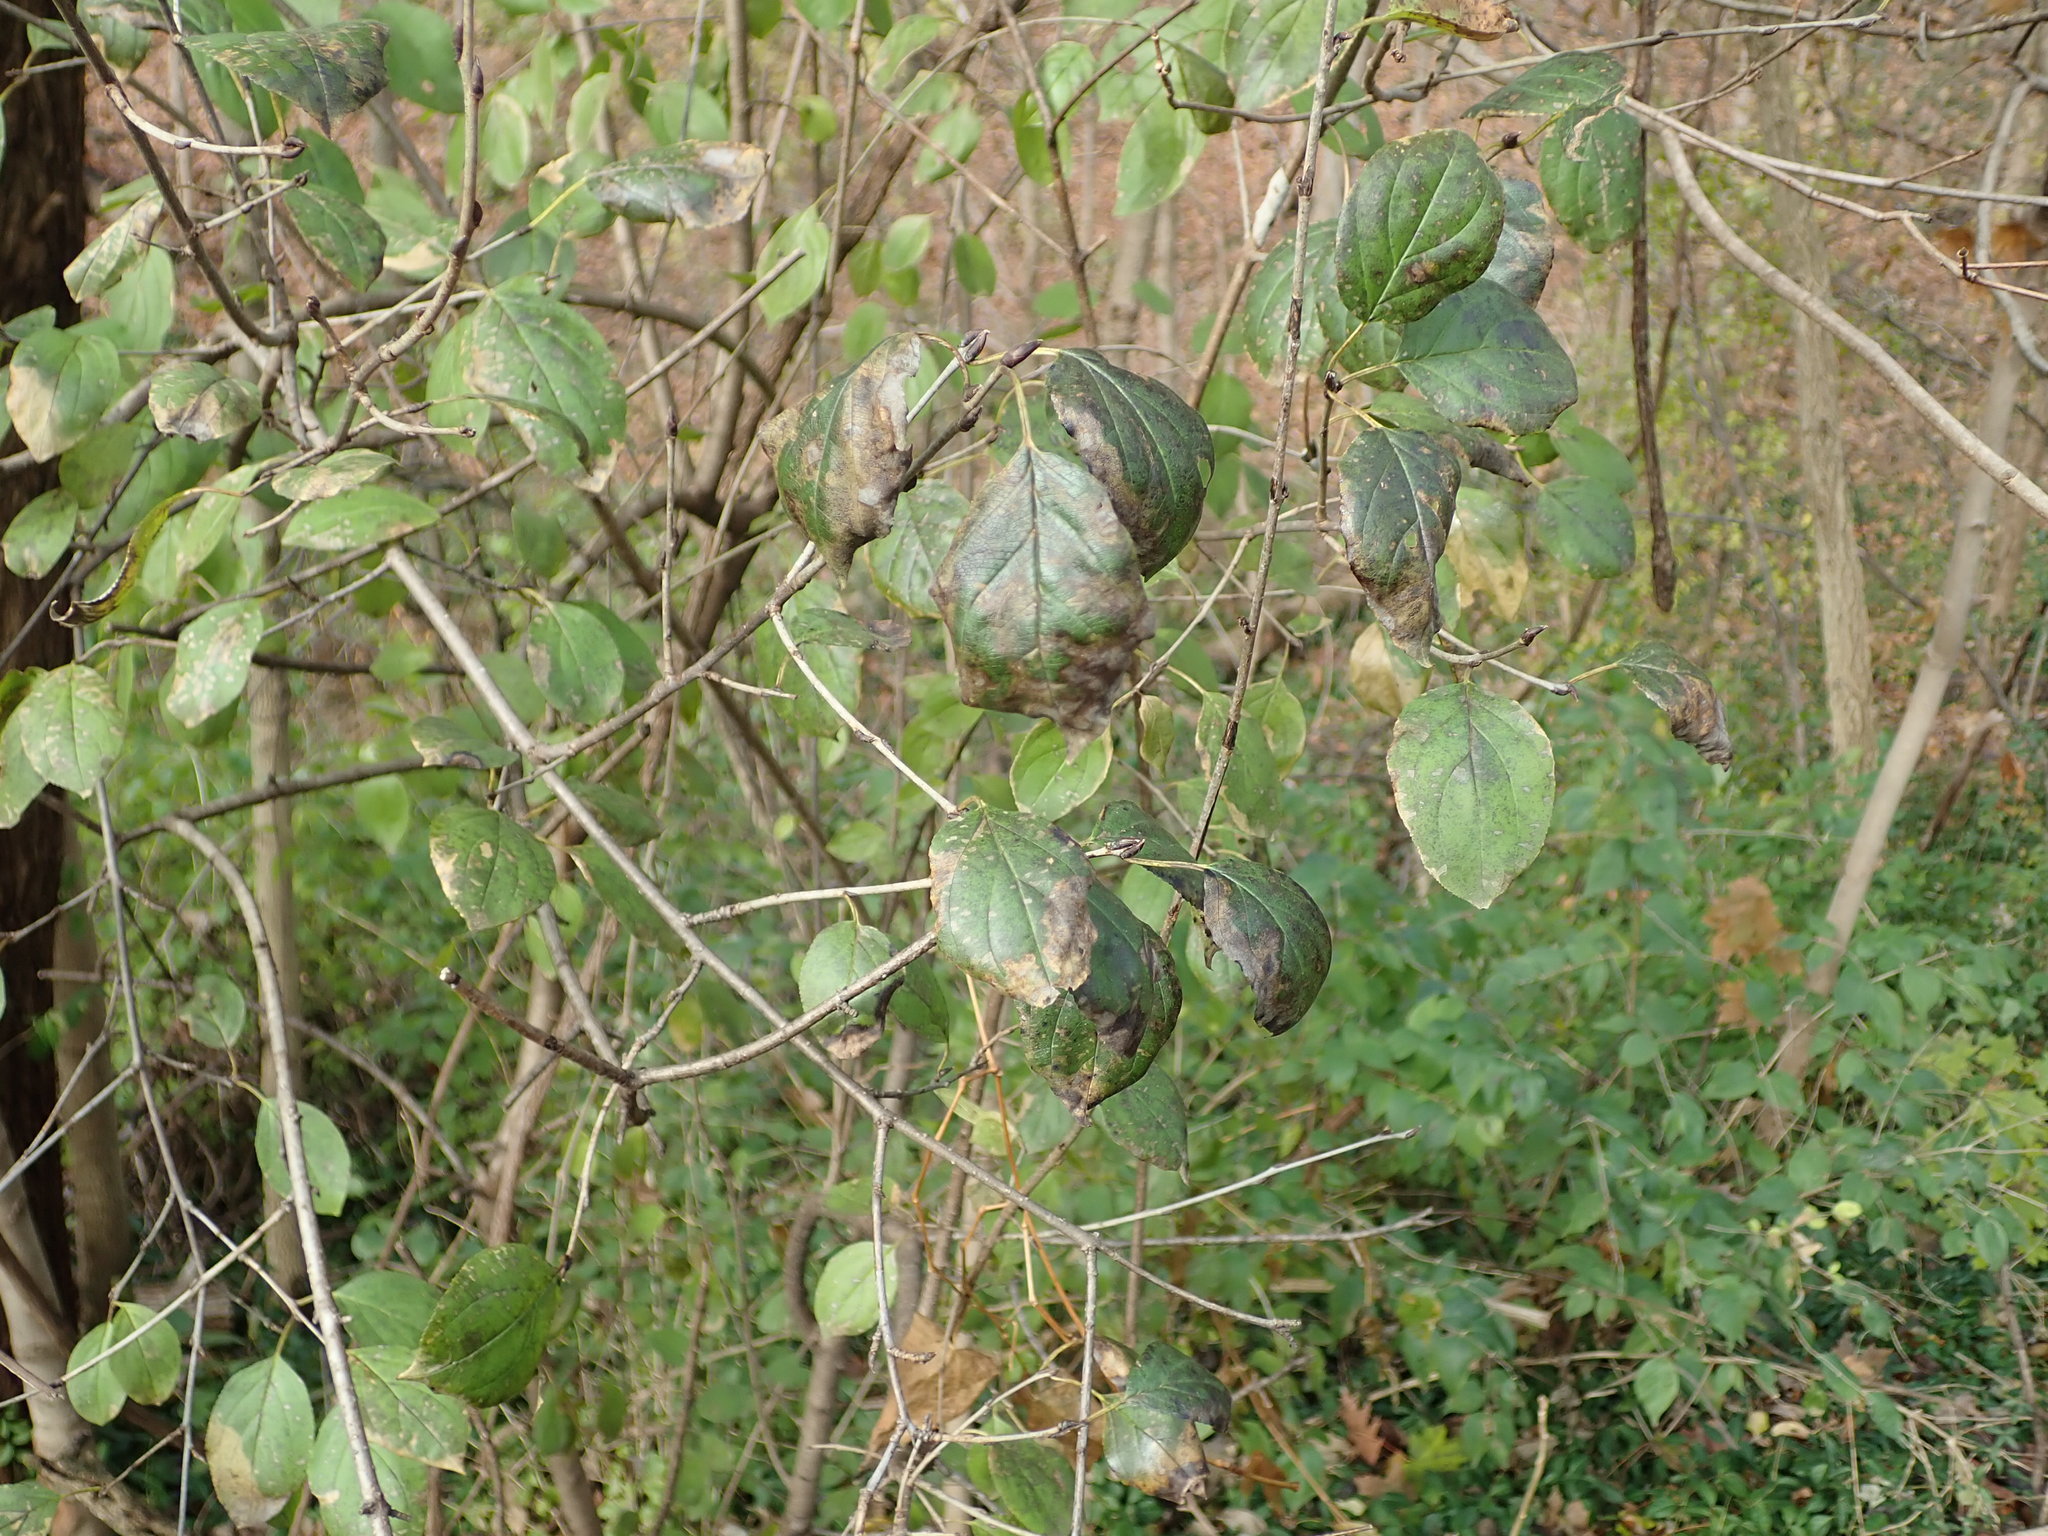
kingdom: Plantae
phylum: Tracheophyta
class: Magnoliopsida
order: Rosales
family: Rhamnaceae
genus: Rhamnus
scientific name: Rhamnus cathartica
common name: Common buckthorn
